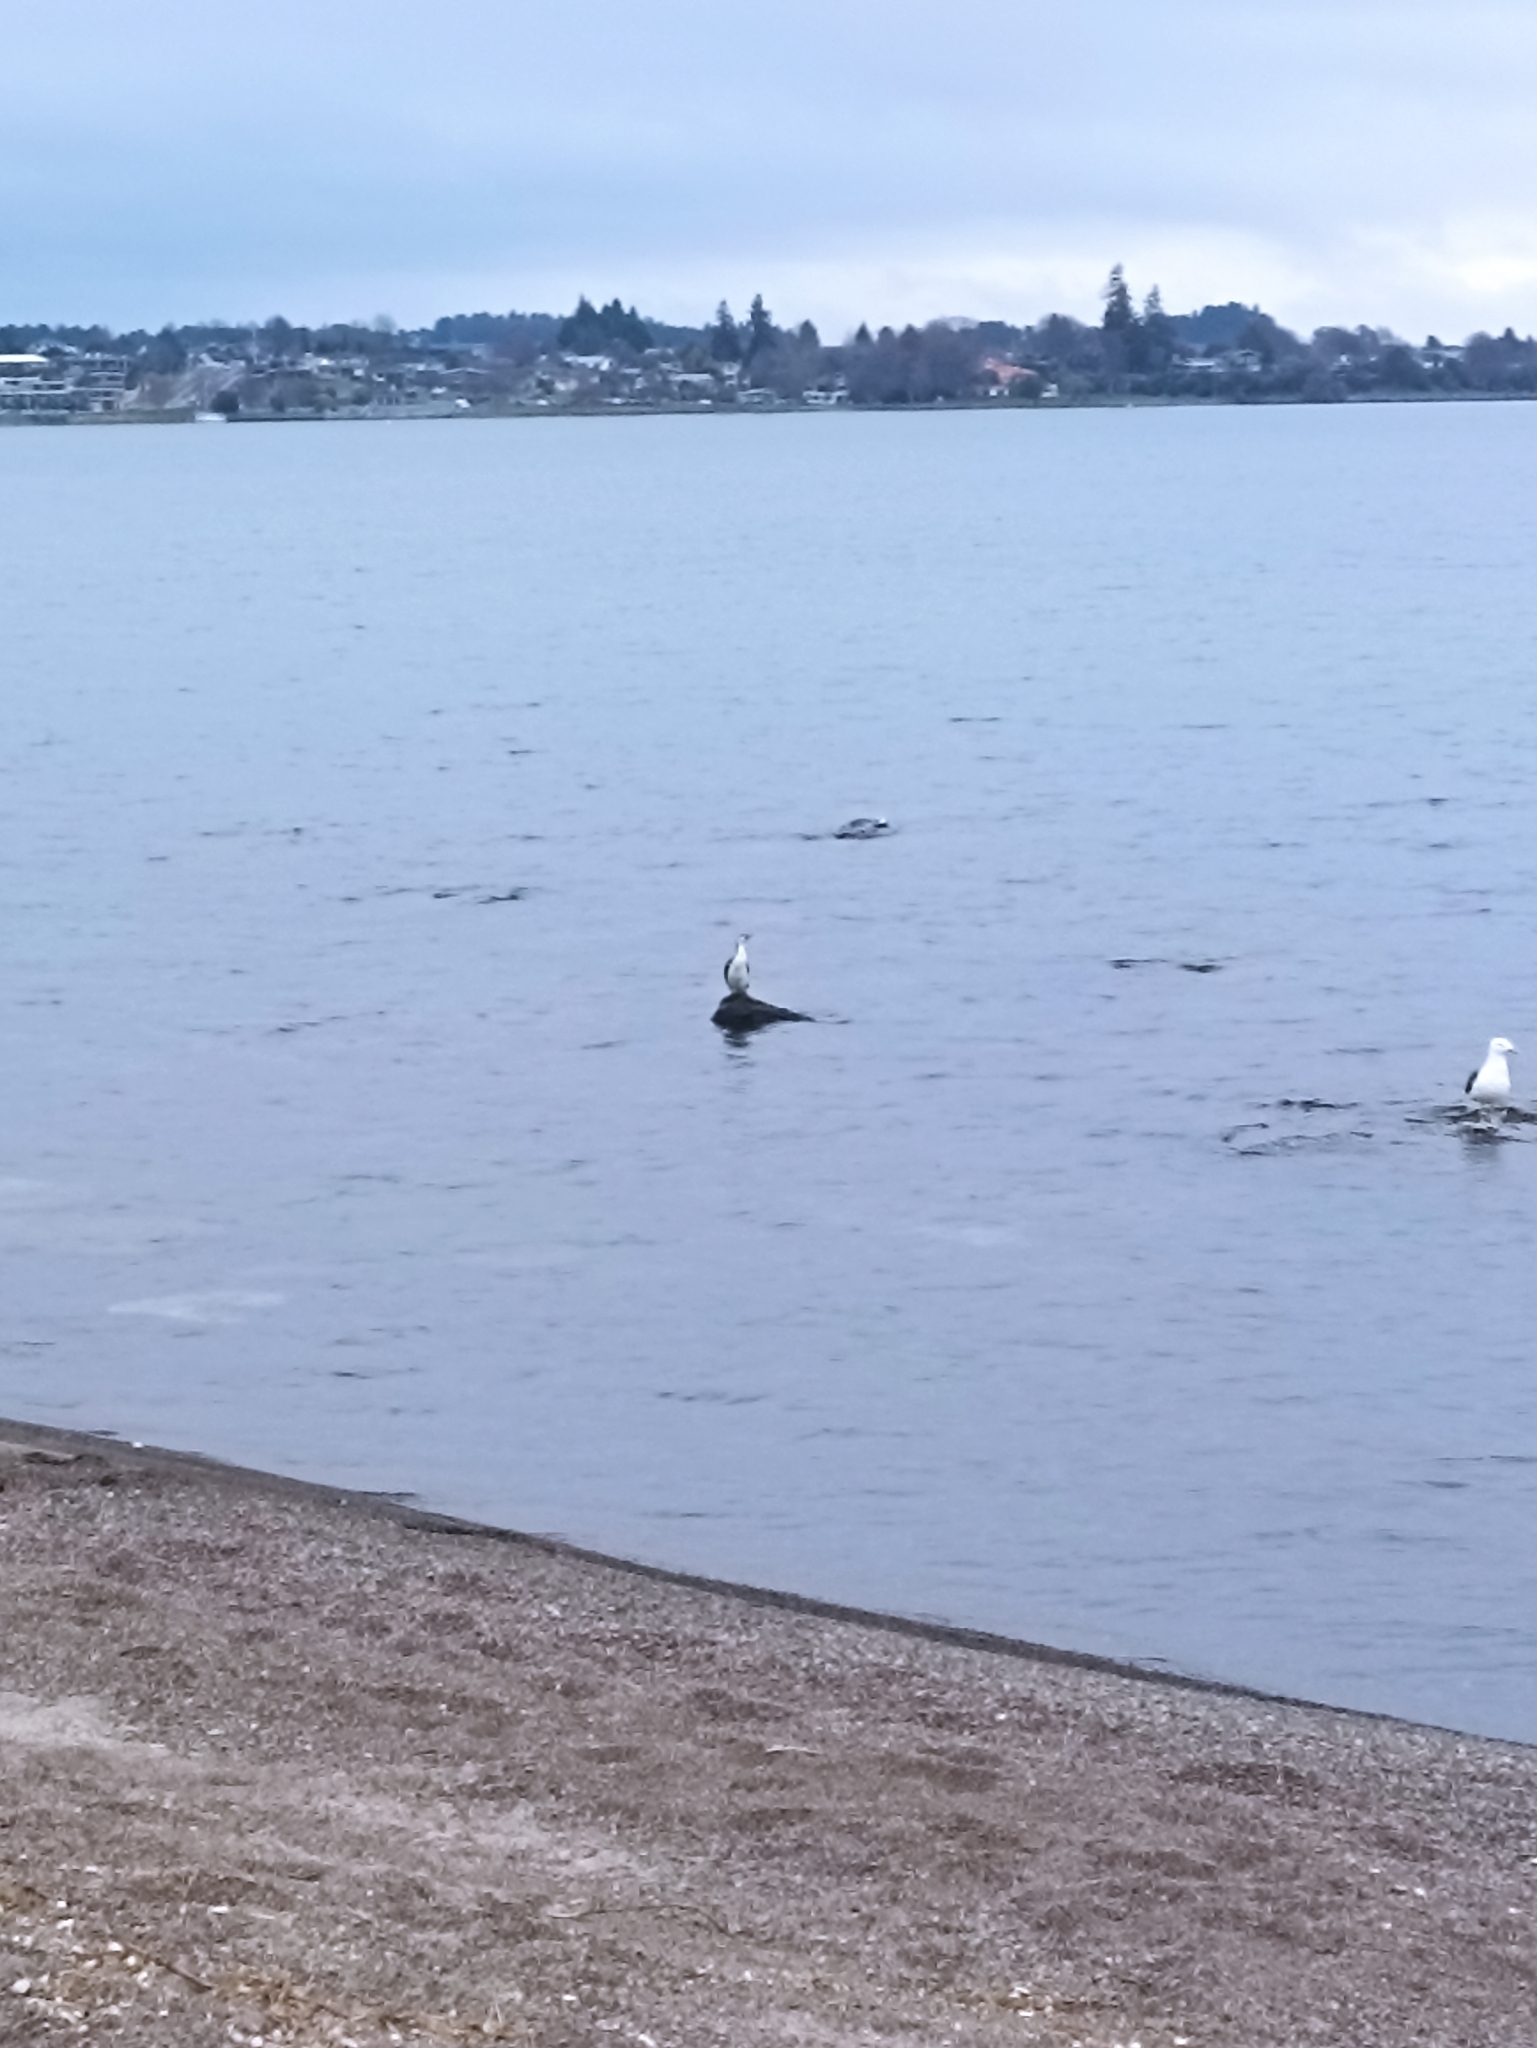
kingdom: Animalia
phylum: Chordata
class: Aves
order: Suliformes
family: Phalacrocoracidae
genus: Microcarbo
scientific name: Microcarbo melanoleucos
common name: Little pied cormorant
